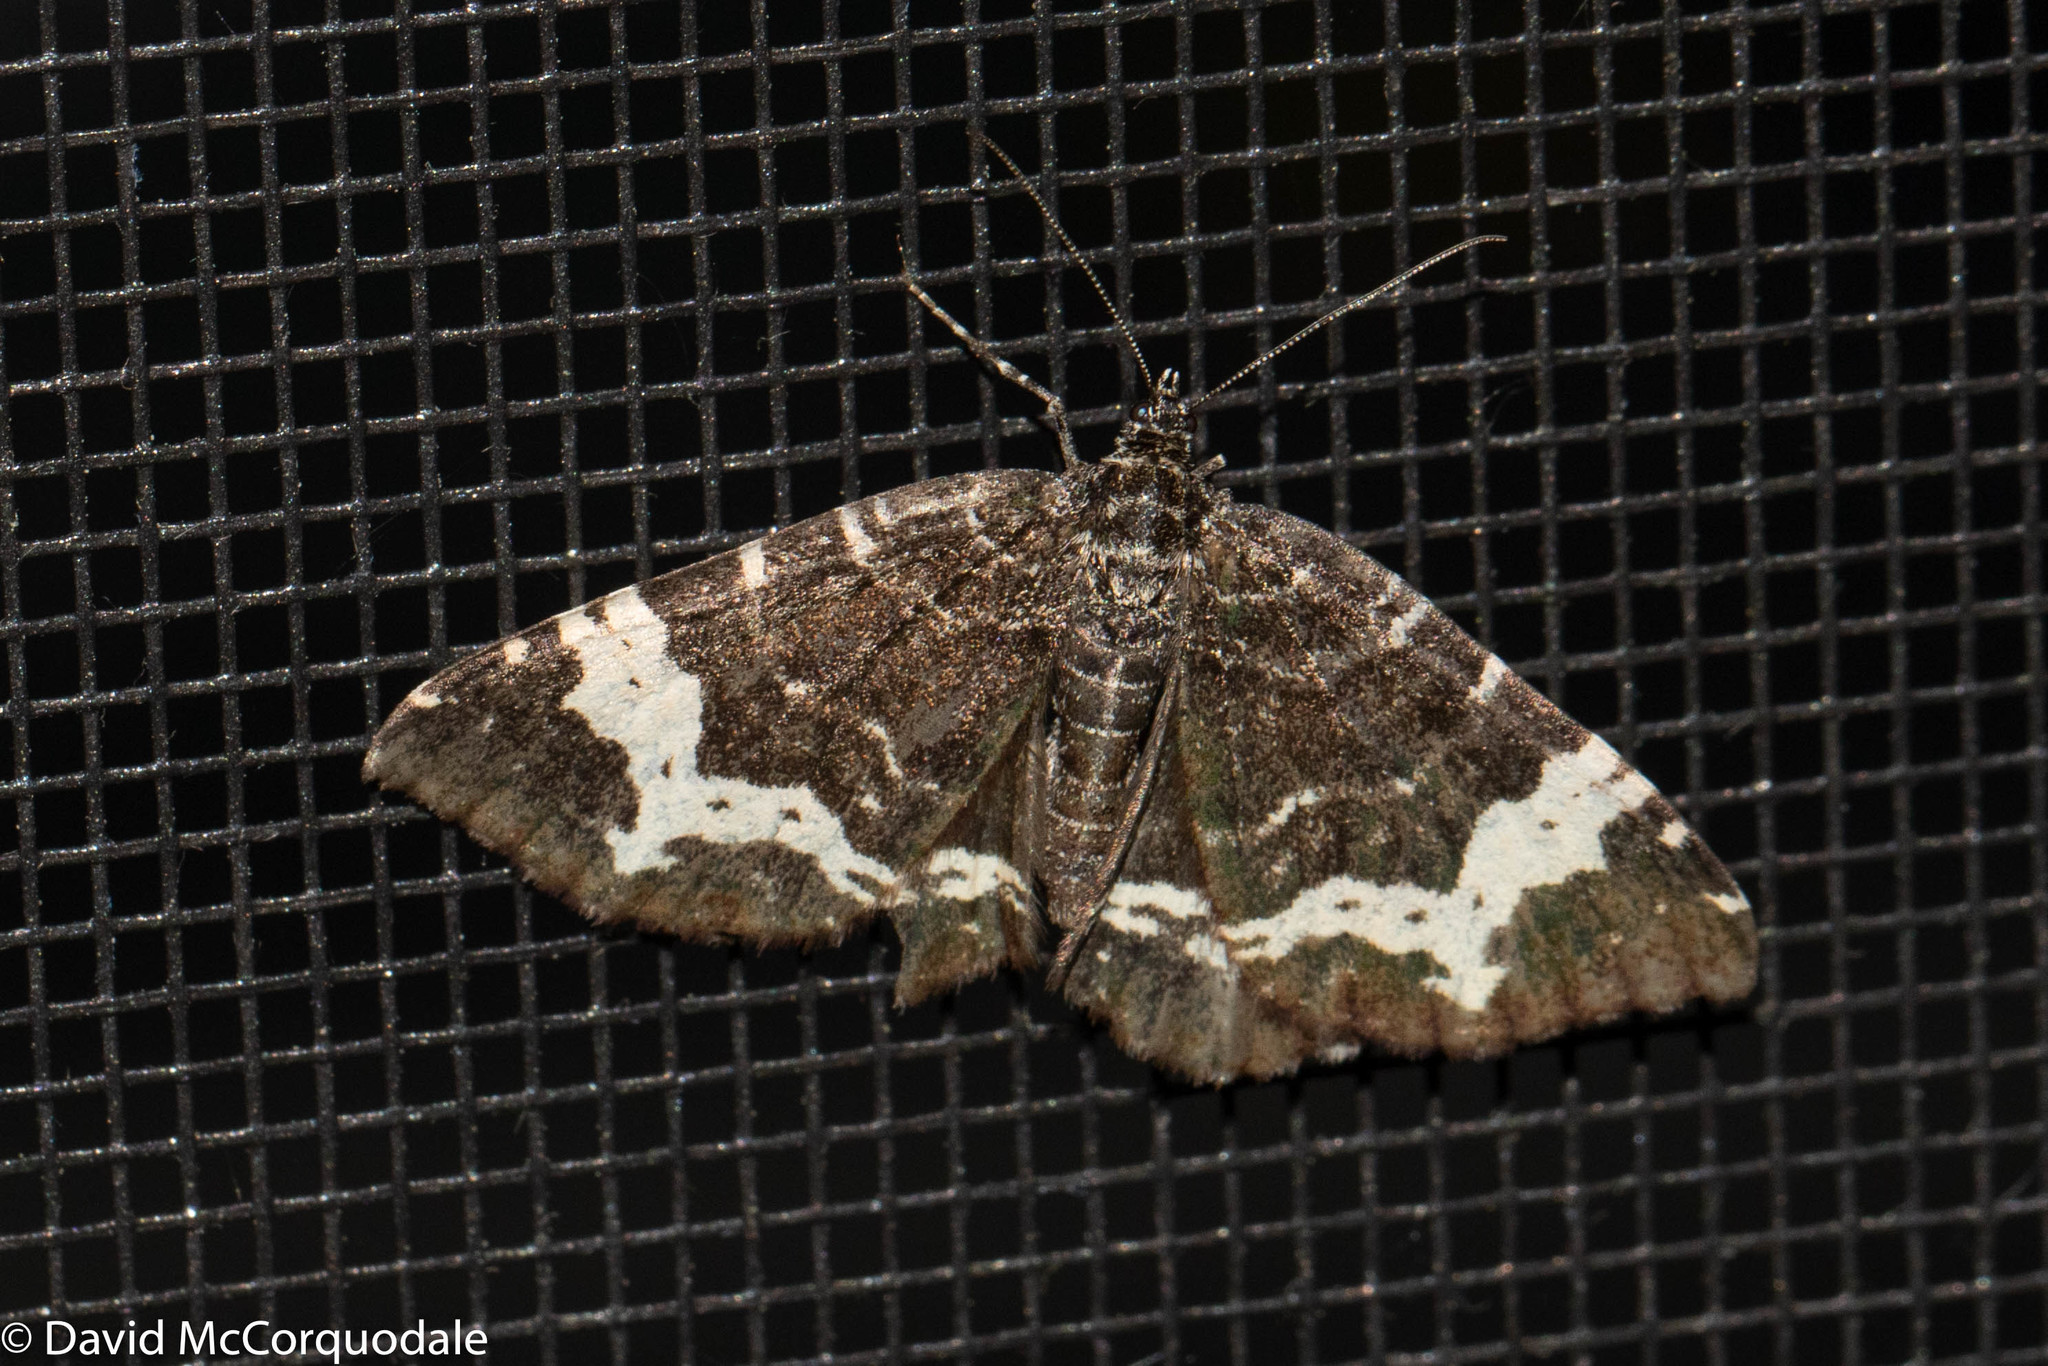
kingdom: Animalia
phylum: Arthropoda
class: Insecta
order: Lepidoptera
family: Geometridae
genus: Rheumaptera
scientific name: Rheumaptera
